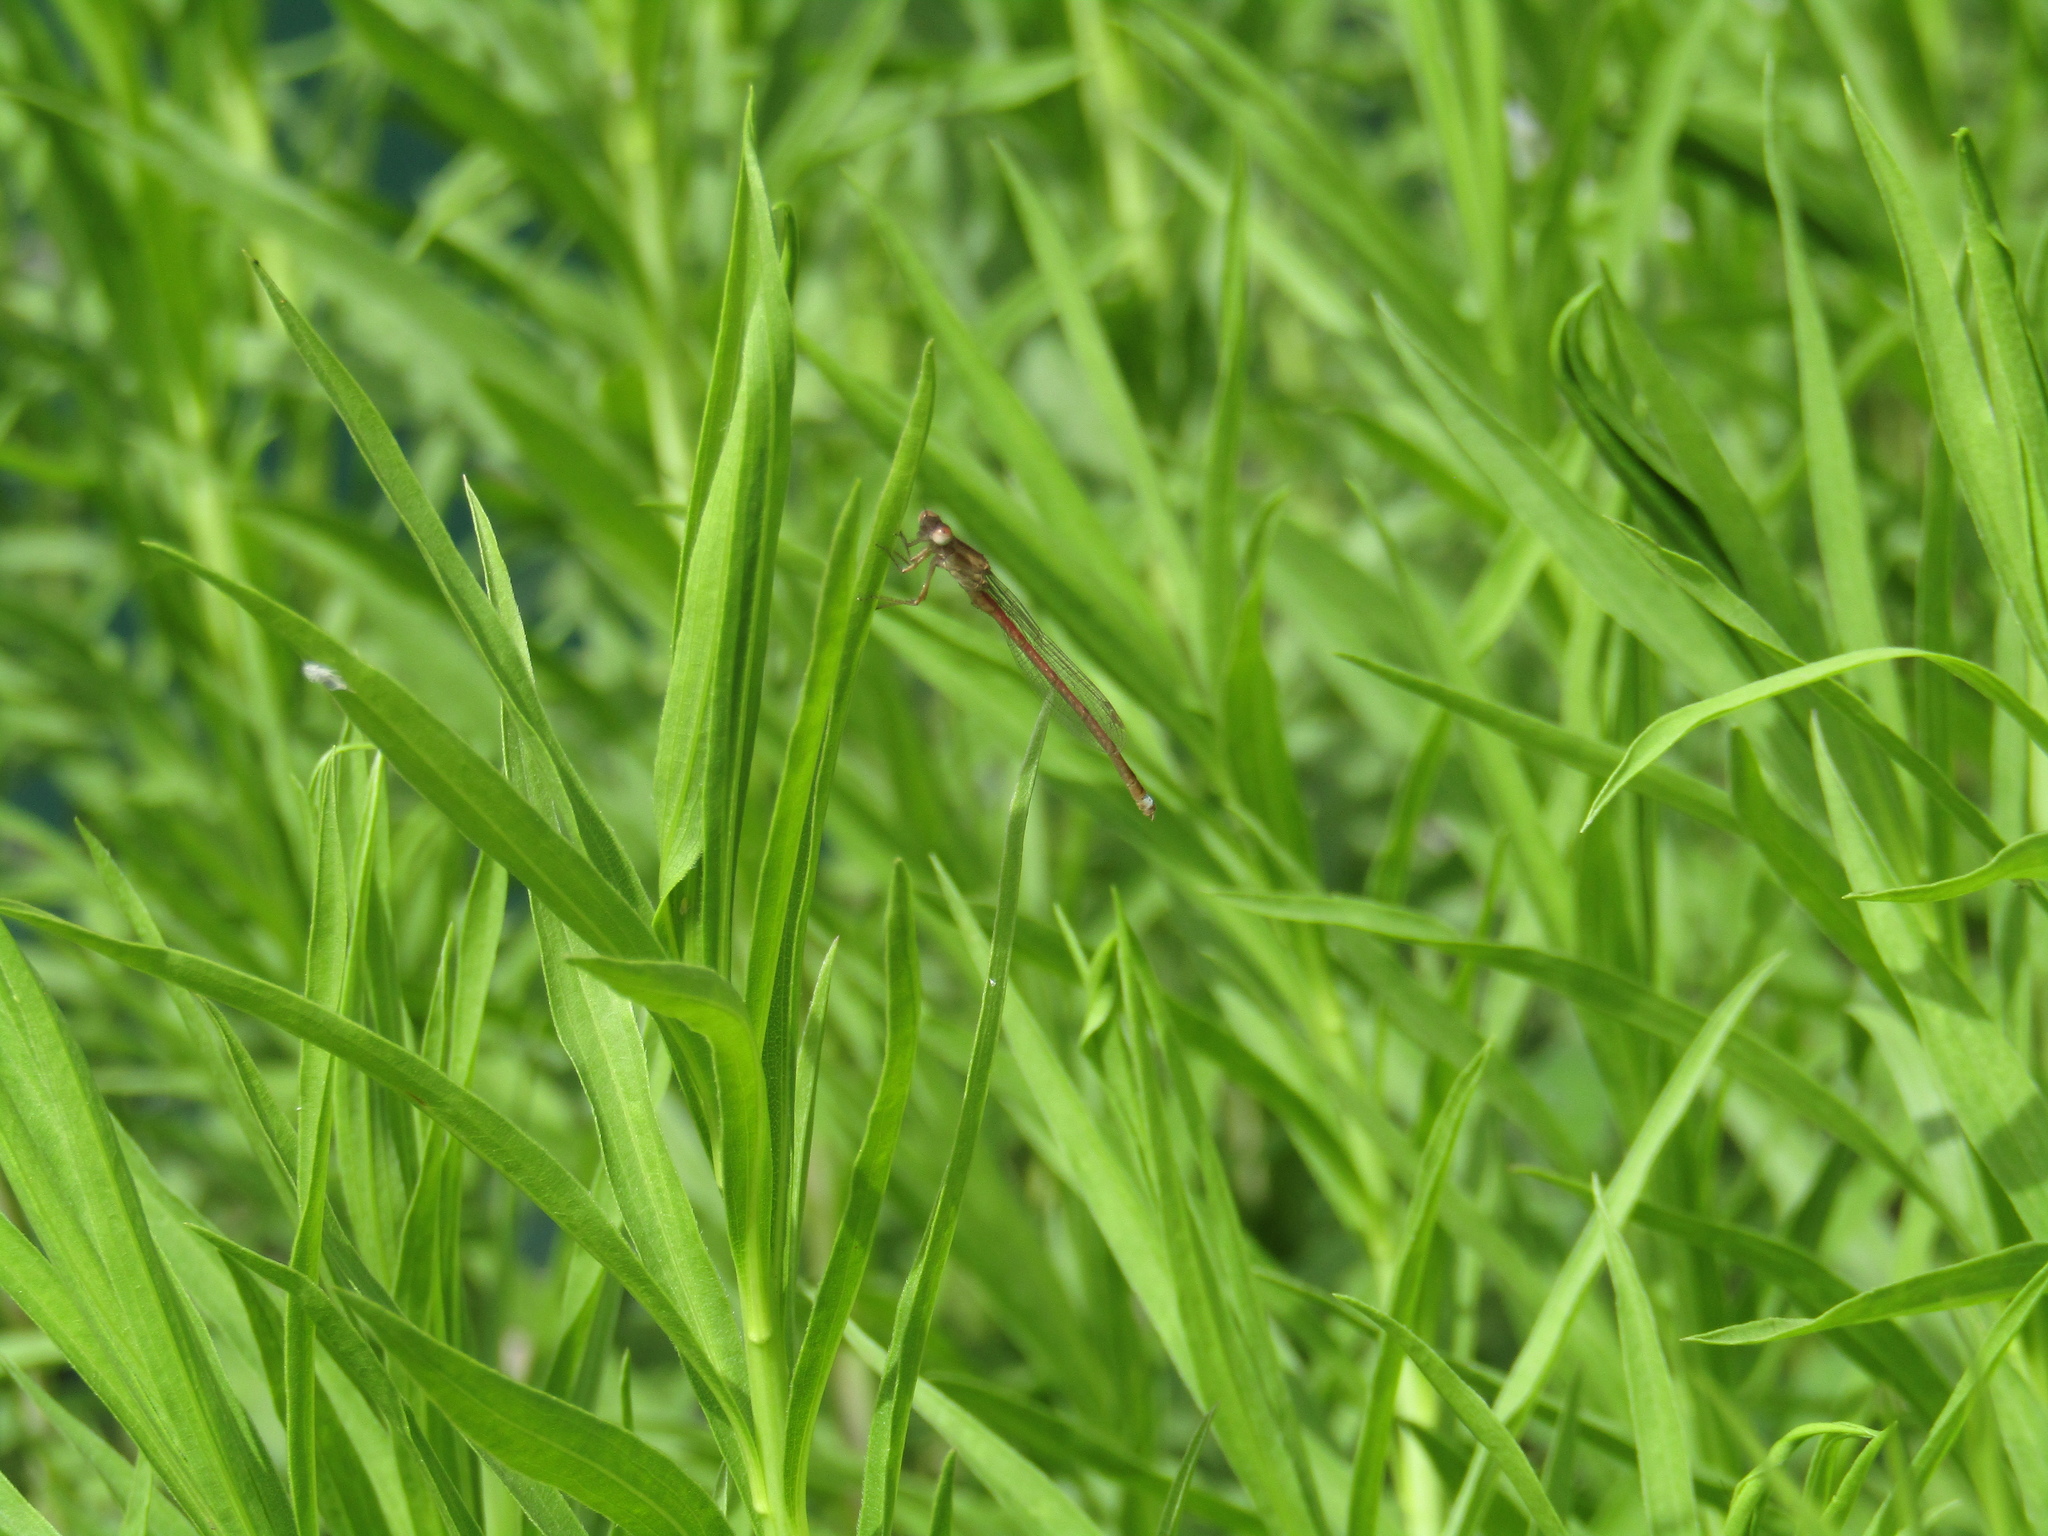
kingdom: Animalia
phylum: Arthropoda
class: Insecta
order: Odonata
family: Coenagrionidae
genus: Oxyagrion
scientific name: Oxyagrion rubidum
